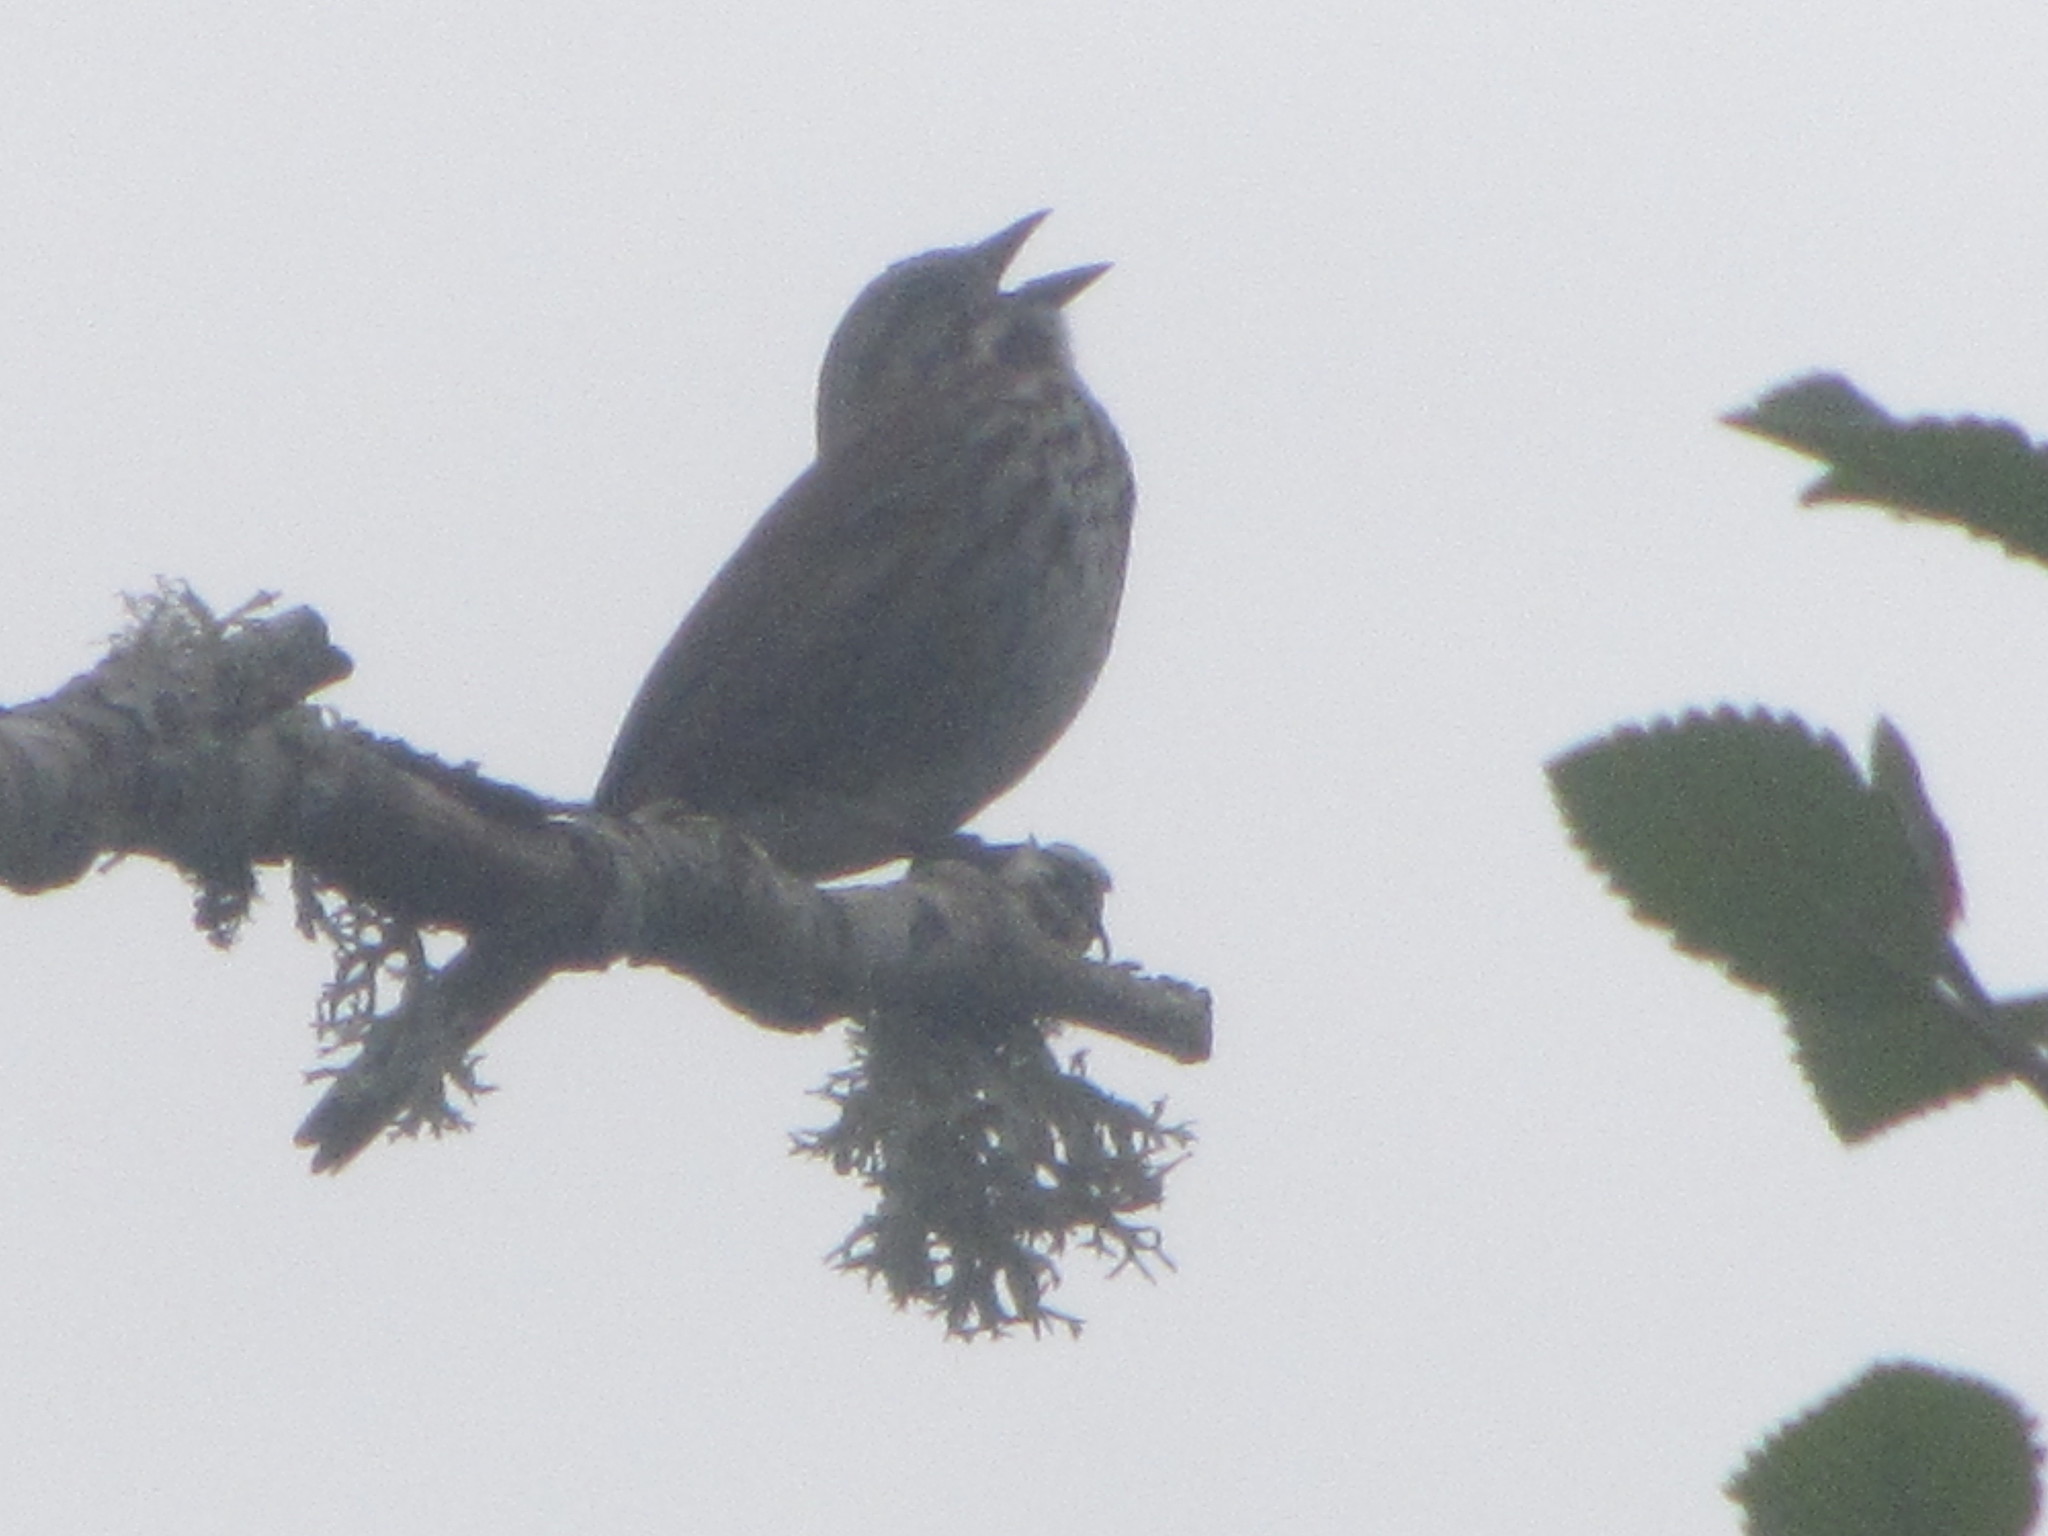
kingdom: Animalia
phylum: Chordata
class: Aves
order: Passeriformes
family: Passerellidae
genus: Melospiza
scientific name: Melospiza melodia
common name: Song sparrow
